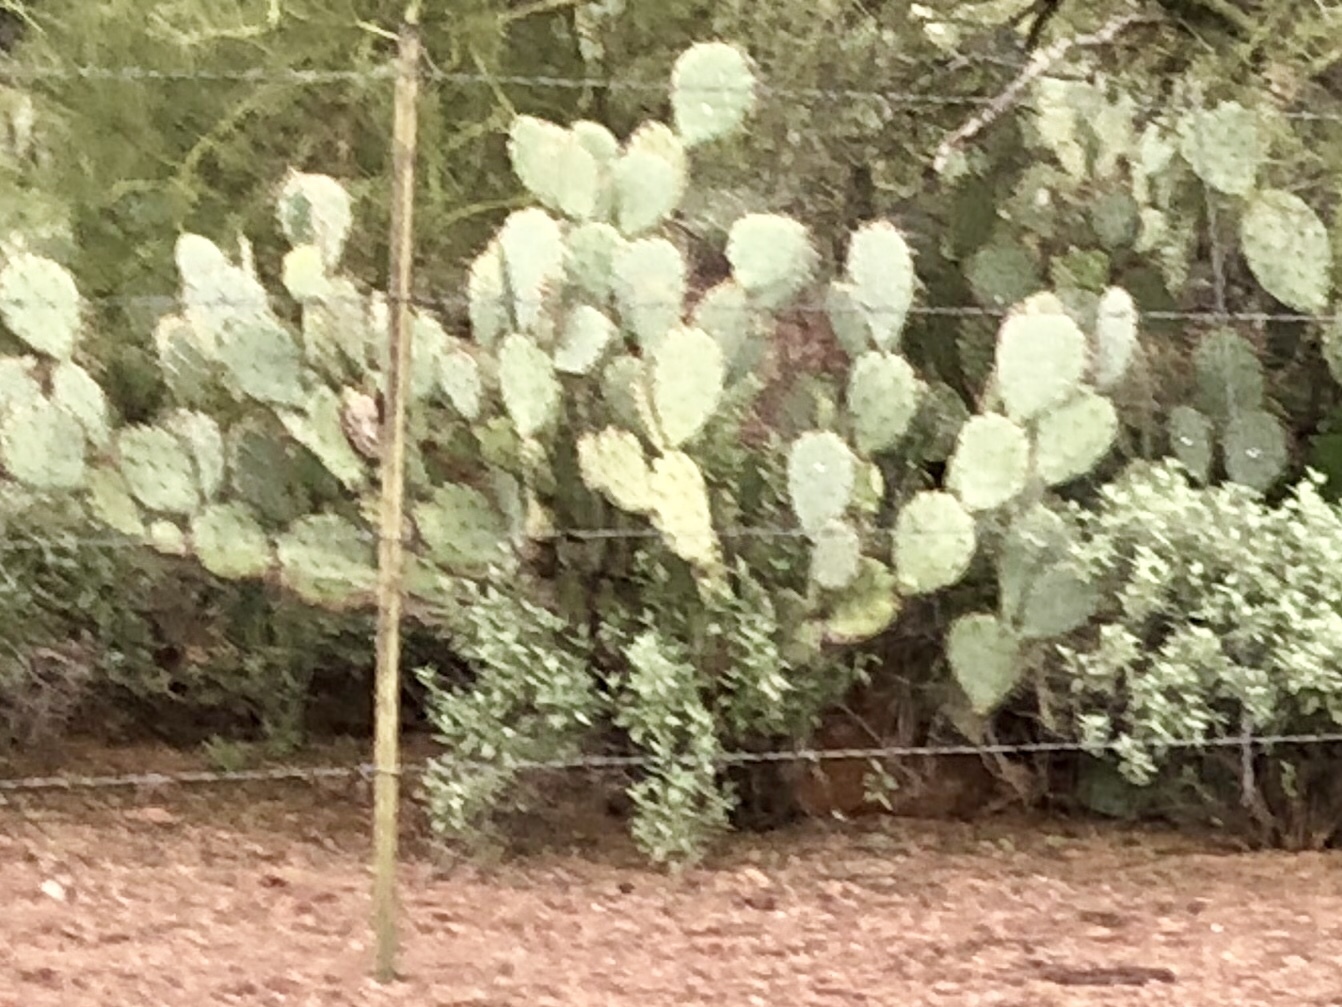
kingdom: Plantae
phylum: Tracheophyta
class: Magnoliopsida
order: Caryophyllales
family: Cactaceae
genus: Opuntia
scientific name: Opuntia engelmannii
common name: Cactus-apple
